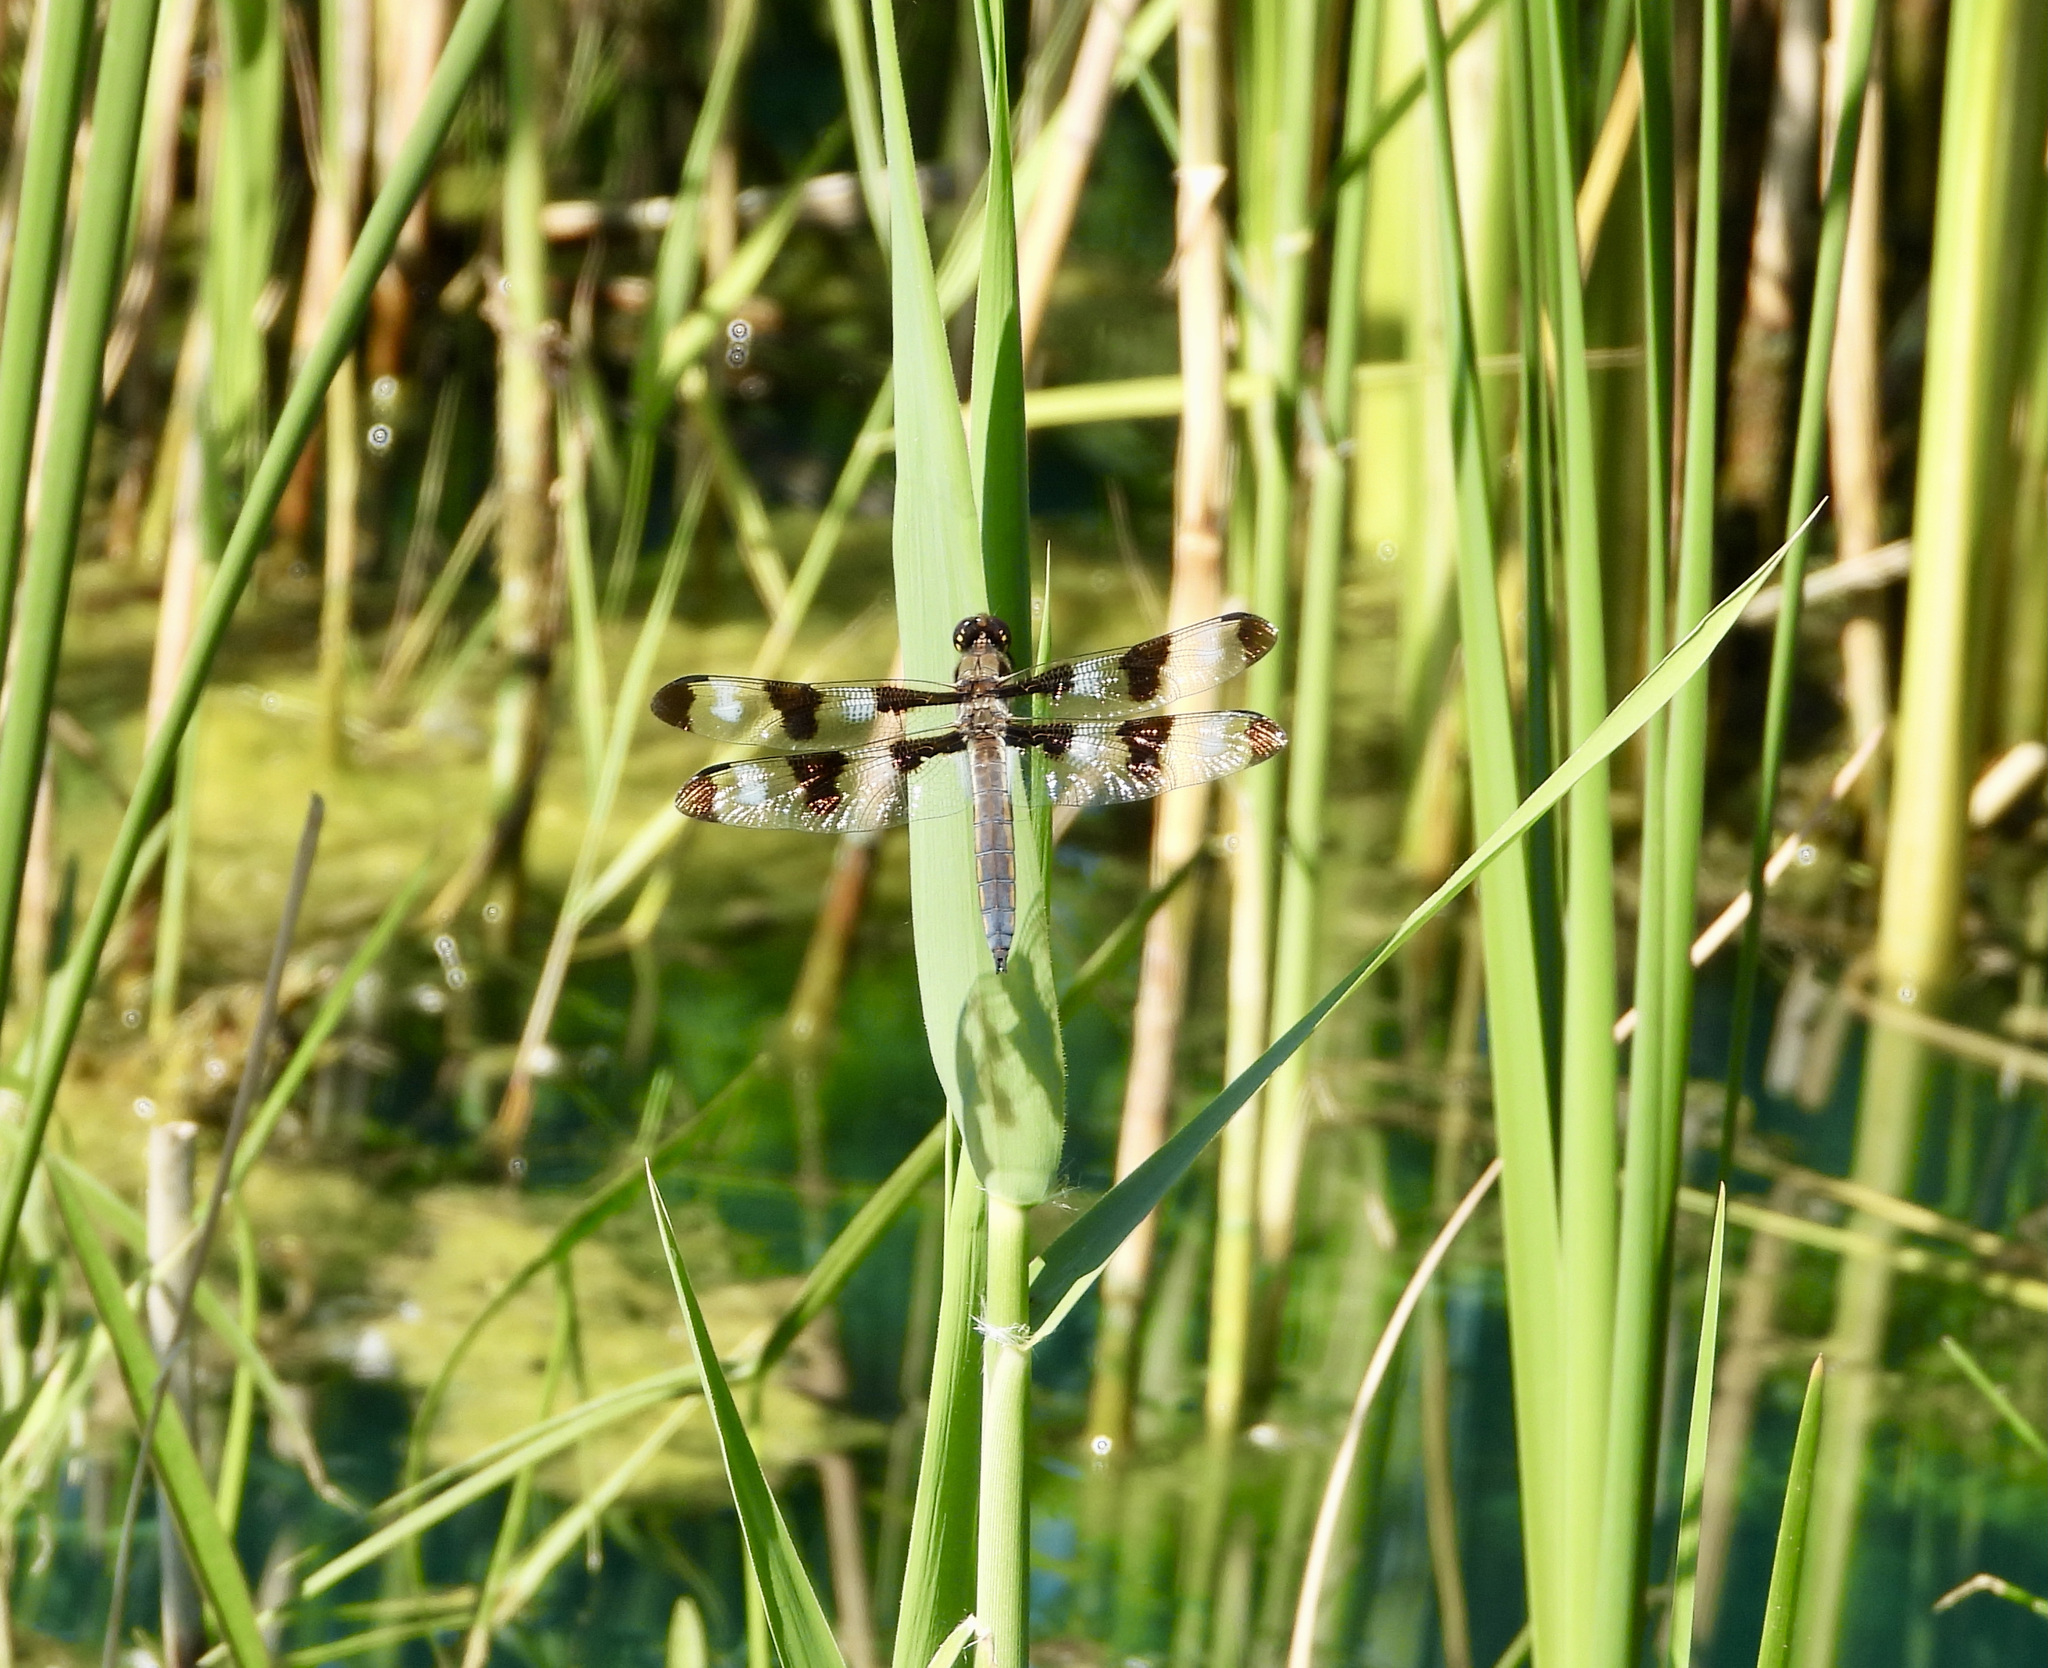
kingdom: Animalia
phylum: Arthropoda
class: Insecta
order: Odonata
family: Libellulidae
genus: Libellula
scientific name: Libellula pulchella
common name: Twelve-spotted skimmer
